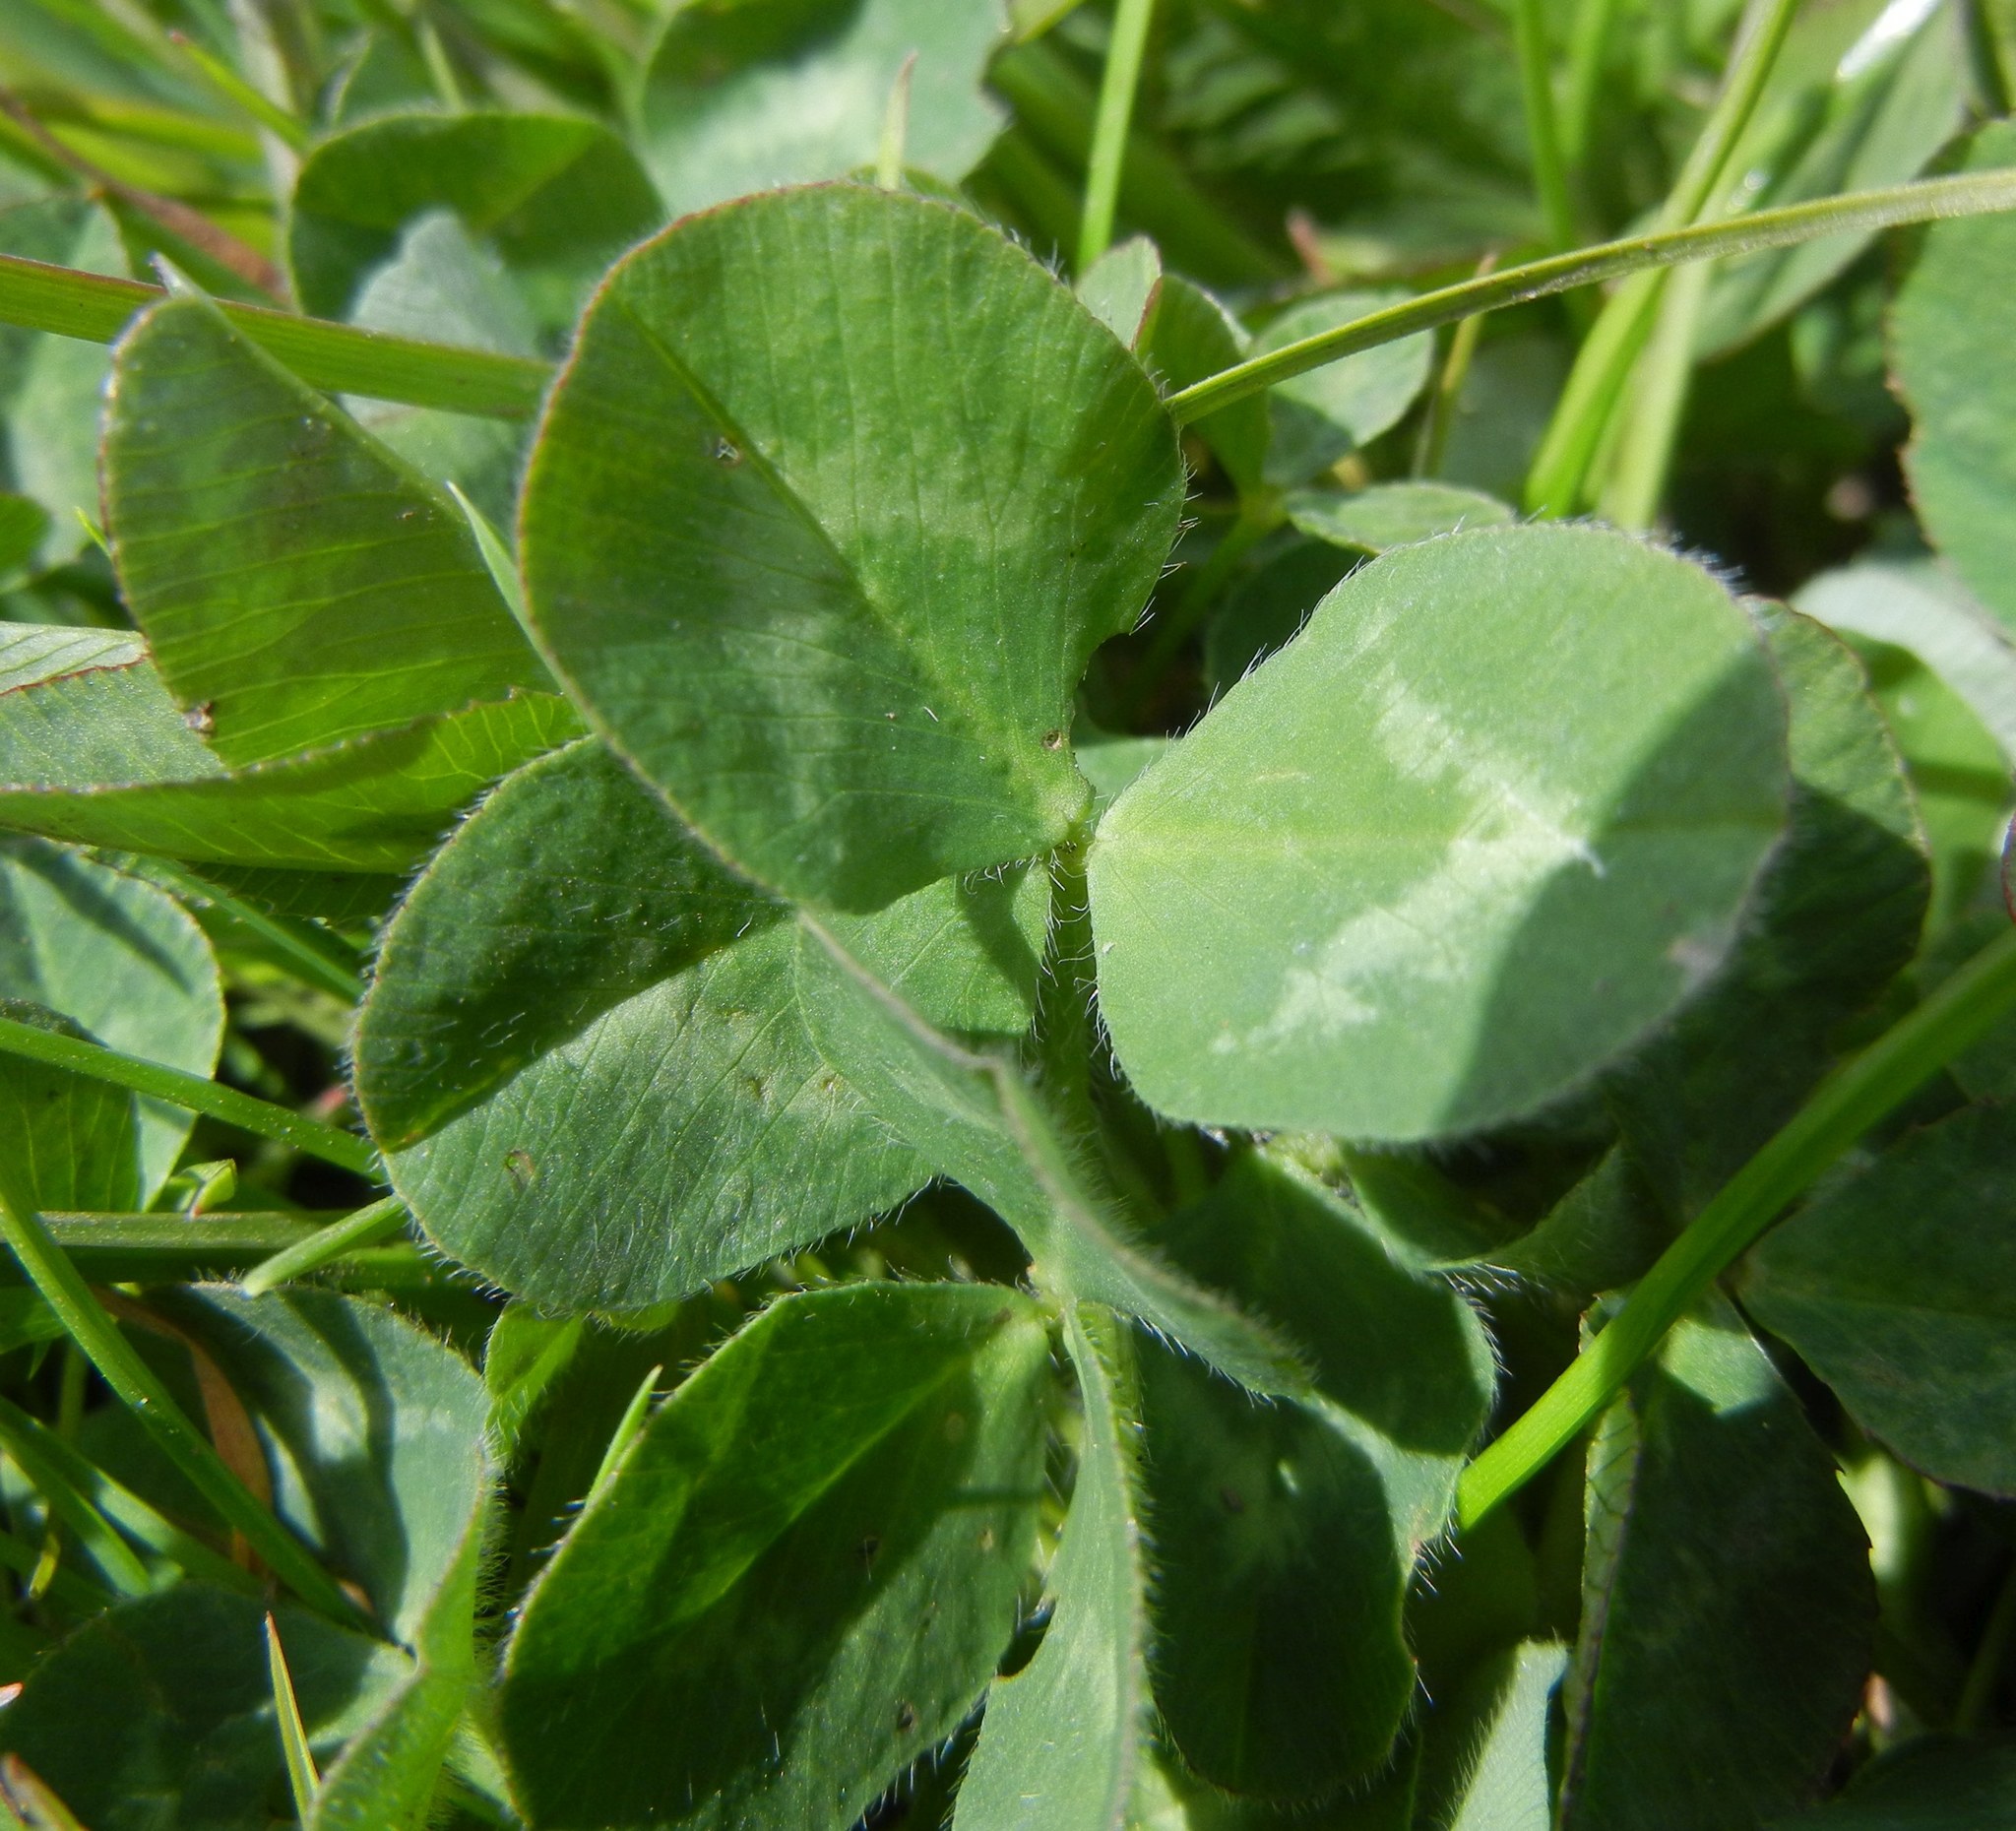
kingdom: Plantae
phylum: Tracheophyta
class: Magnoliopsida
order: Fabales
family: Fabaceae
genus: Trifolium
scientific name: Trifolium pratense
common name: Red clover
